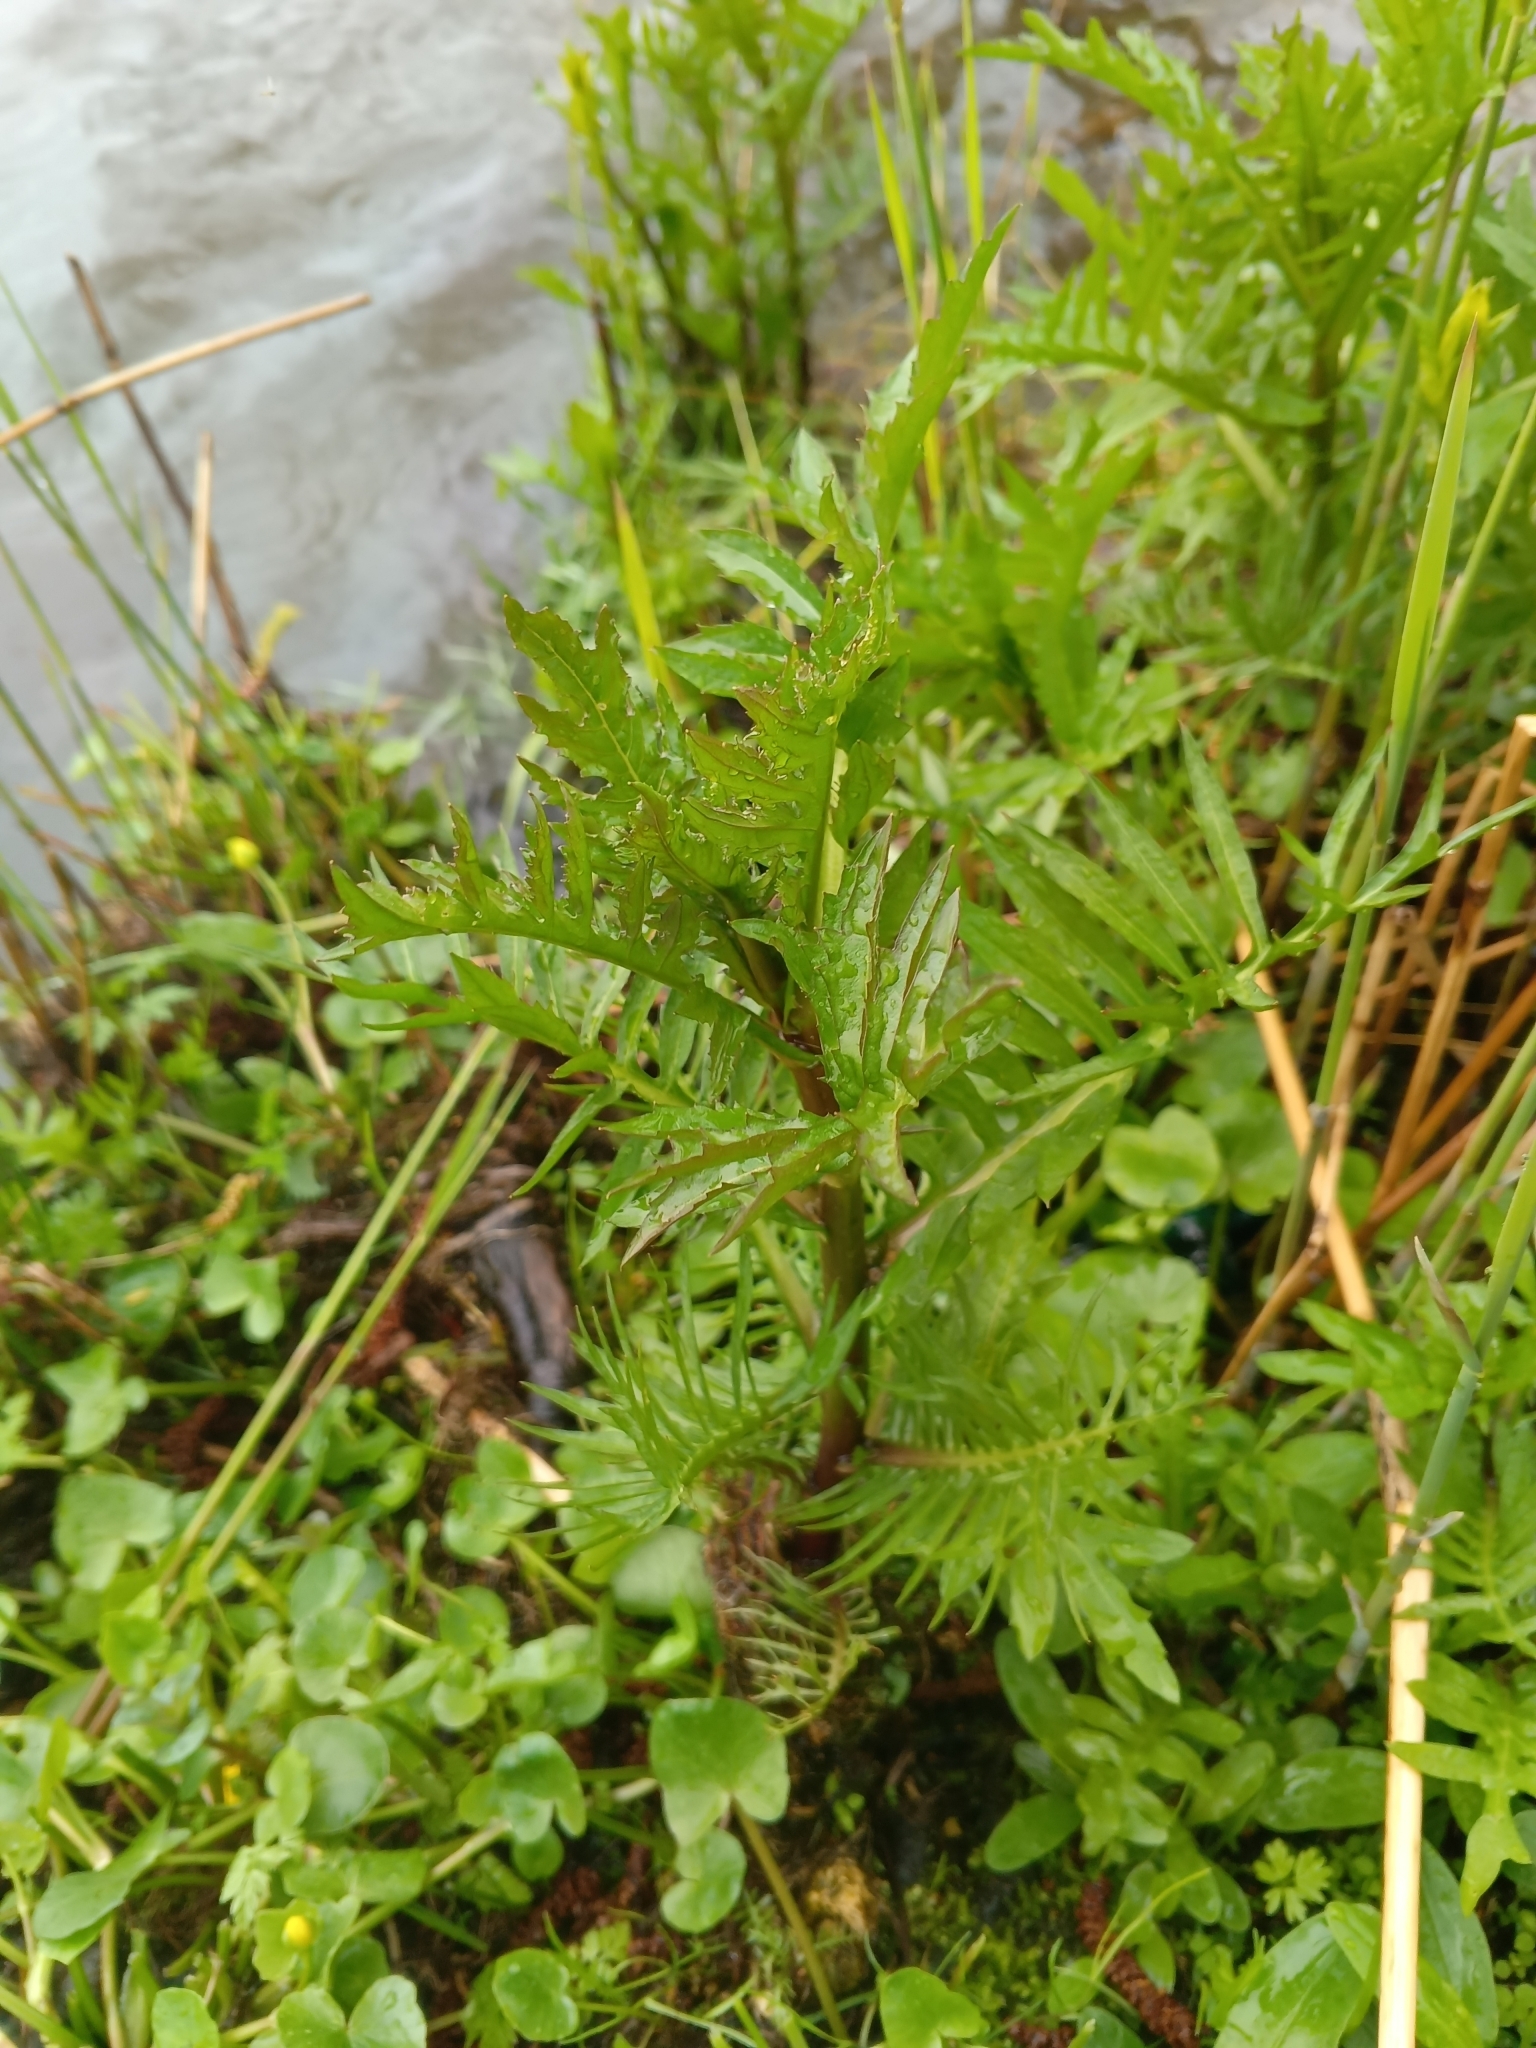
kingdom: Plantae
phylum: Tracheophyta
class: Magnoliopsida
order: Brassicales
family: Brassicaceae
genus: Rorippa
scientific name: Rorippa amphibia
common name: Great yellow-cress
